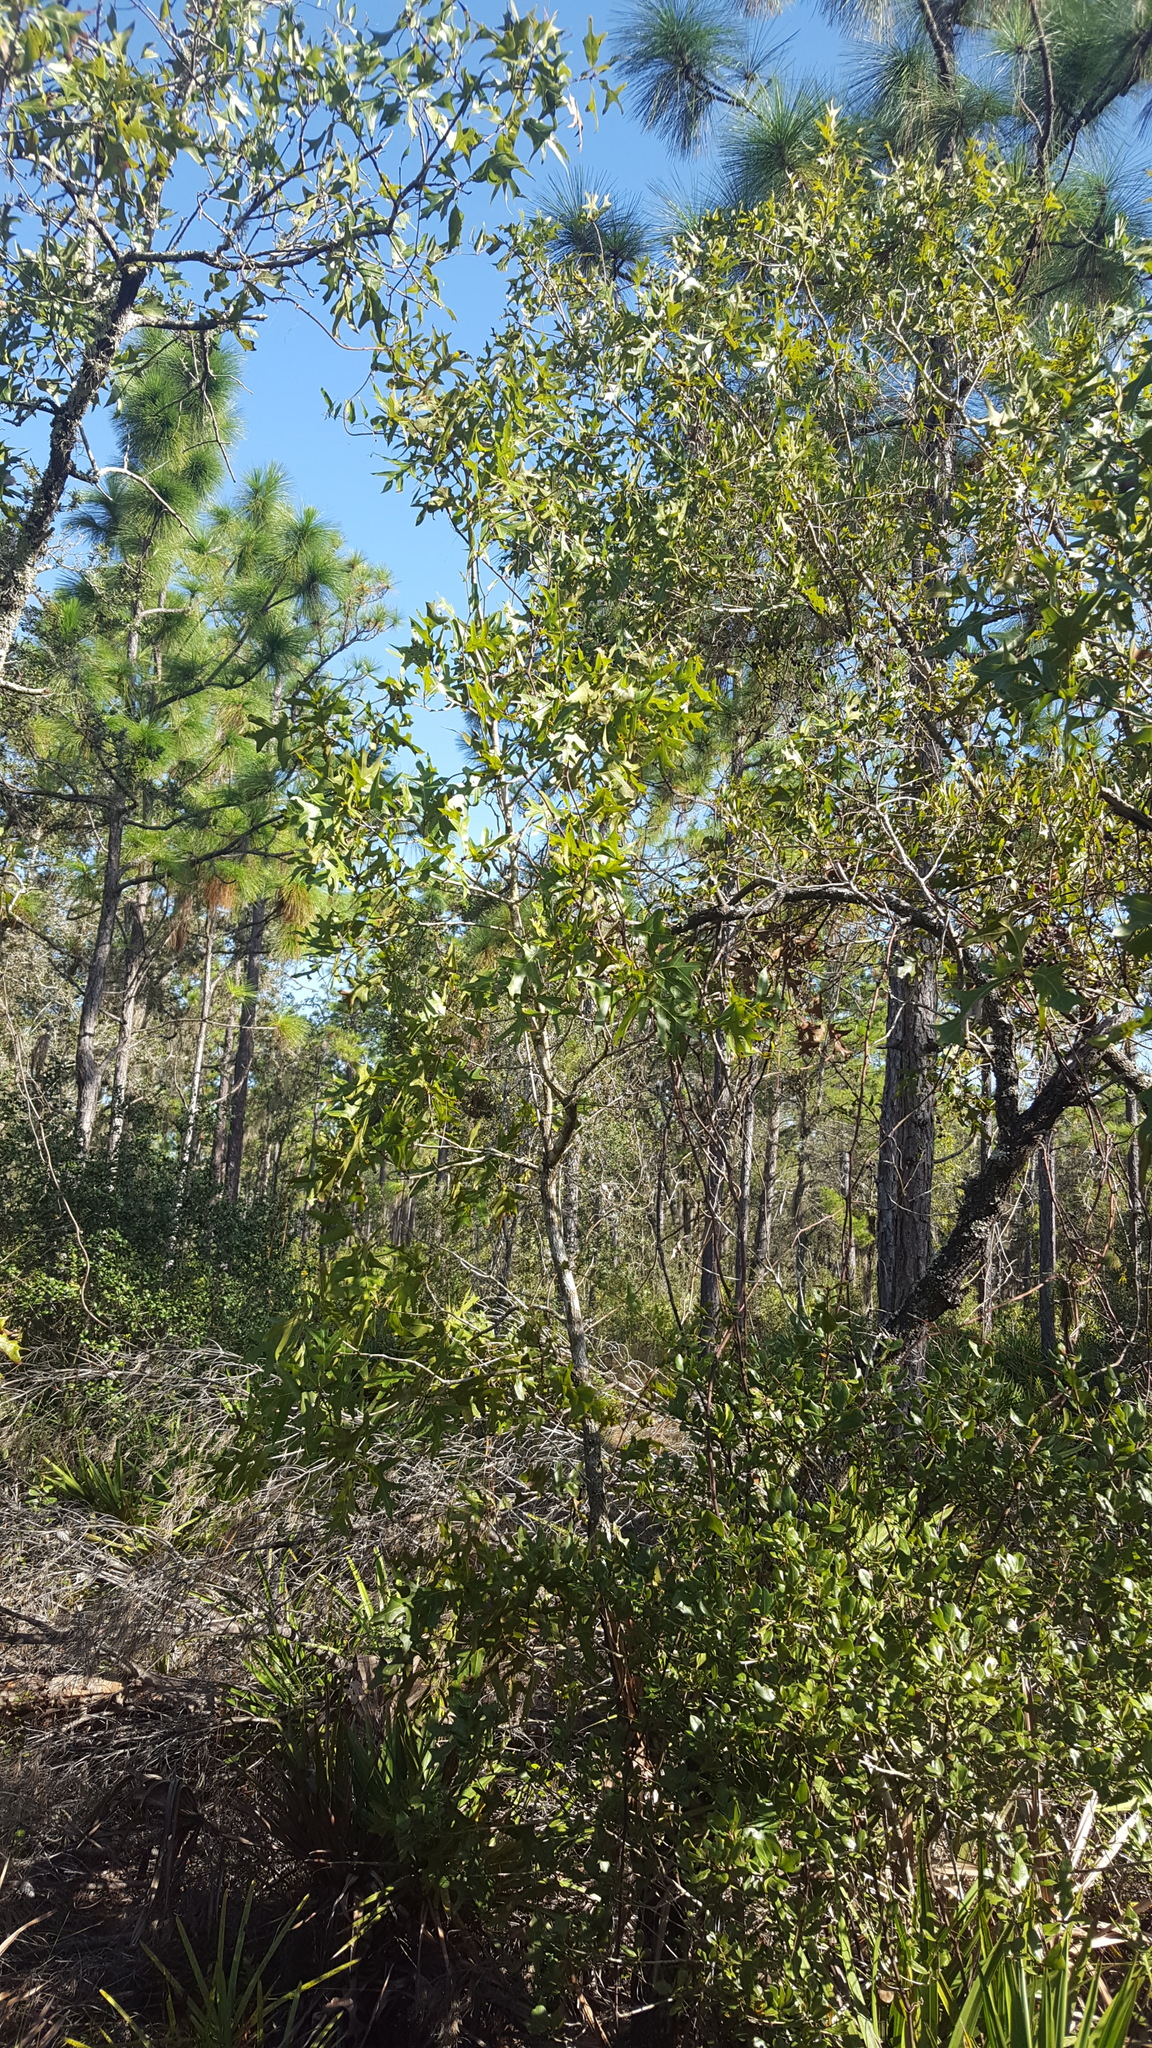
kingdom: Plantae
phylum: Tracheophyta
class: Magnoliopsida
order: Fagales
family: Fagaceae
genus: Quercus
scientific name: Quercus laevis
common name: Turkey oak
